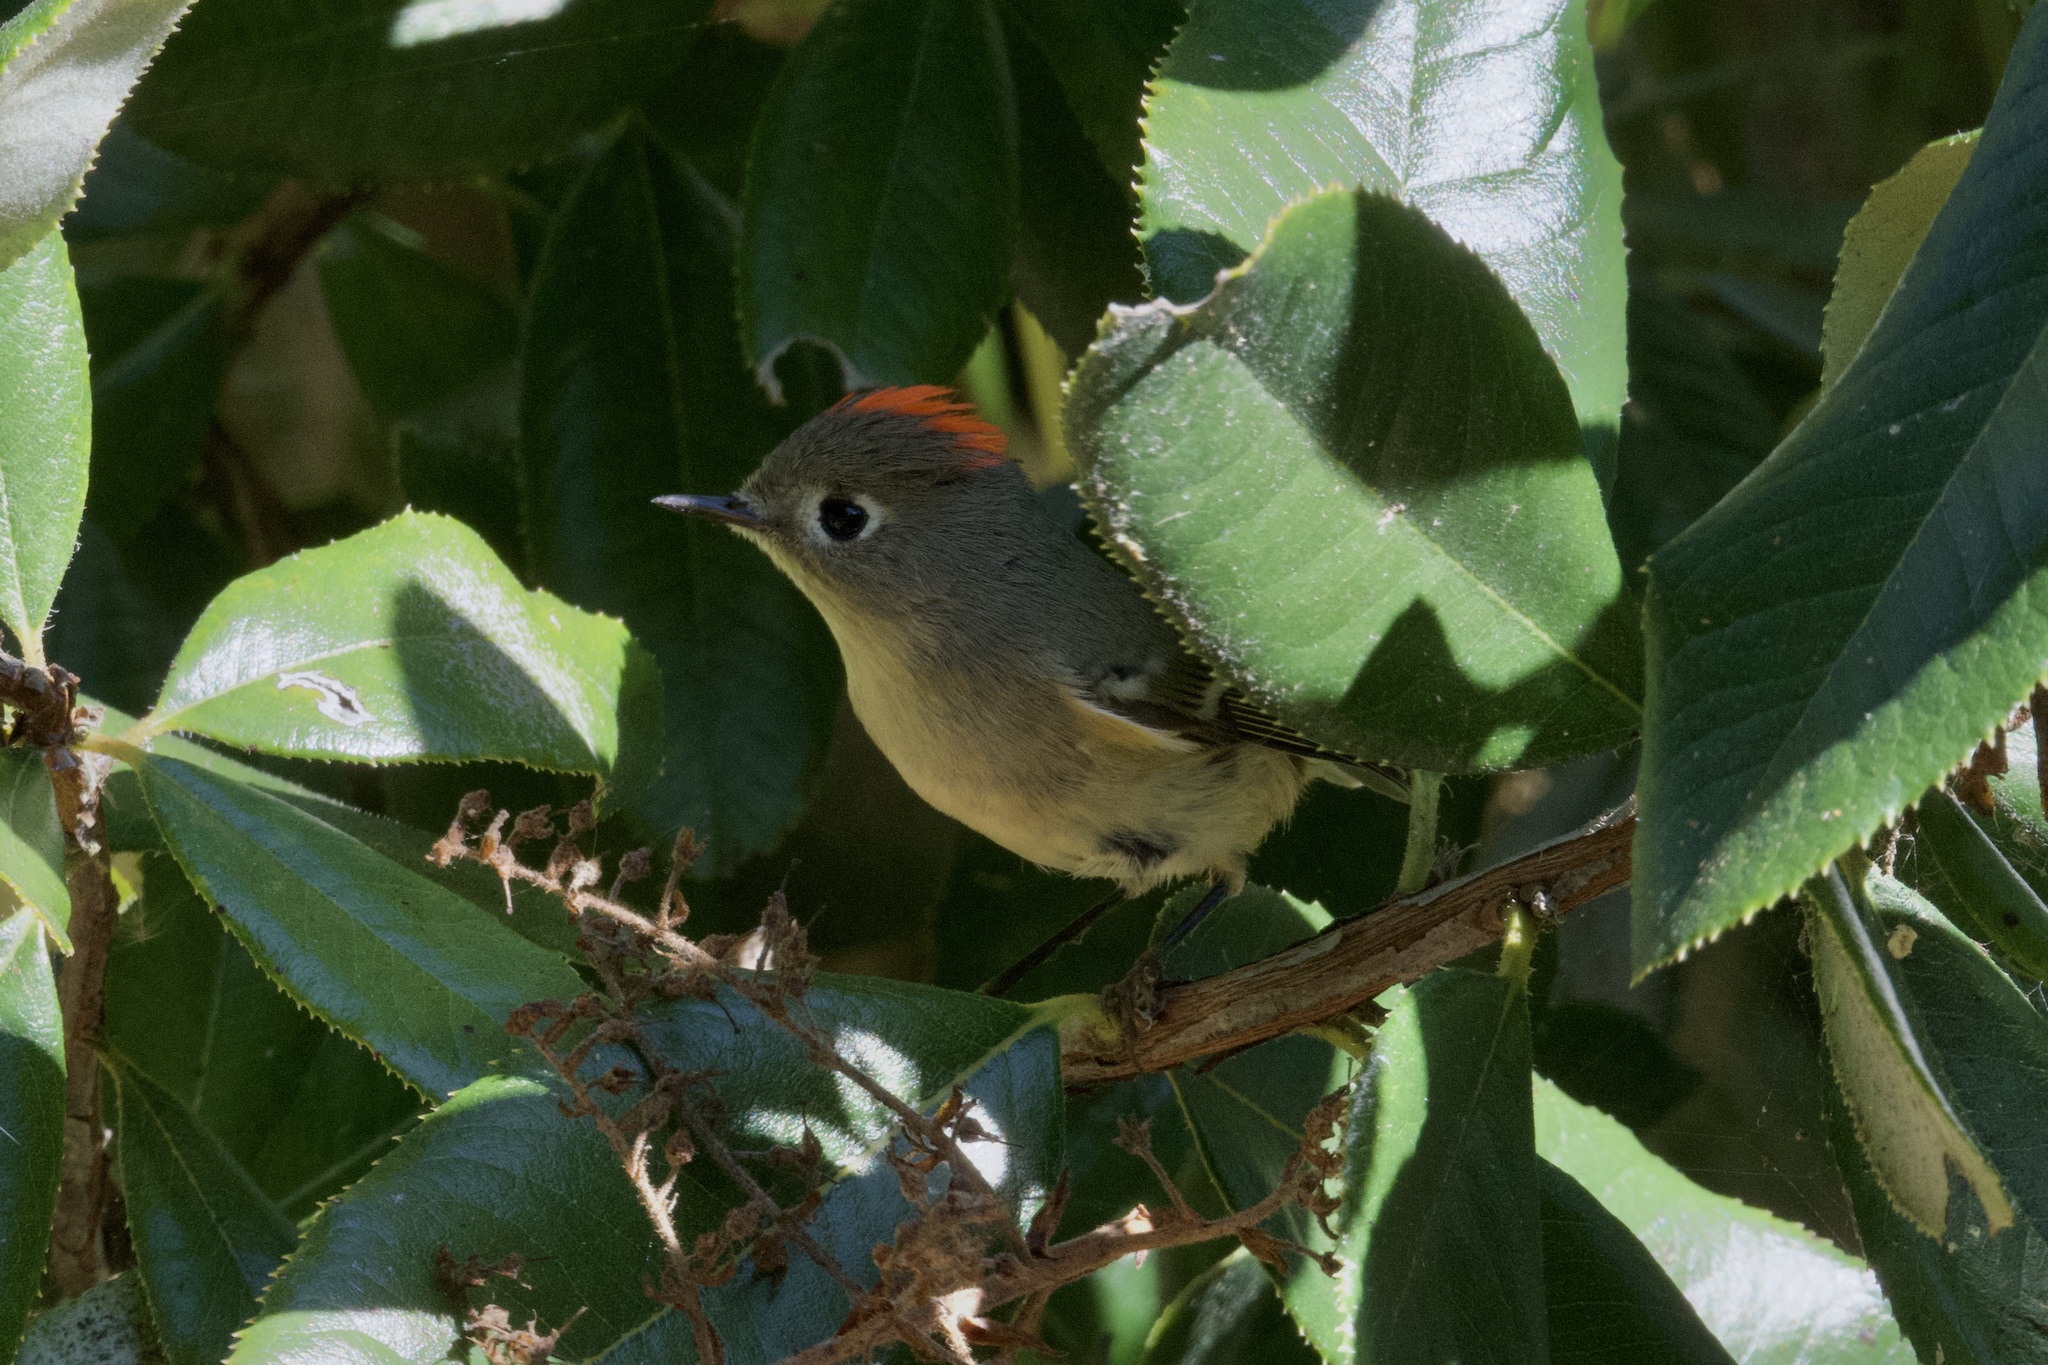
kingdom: Animalia
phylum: Chordata
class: Aves
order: Passeriformes
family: Regulidae
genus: Regulus
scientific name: Regulus calendula
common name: Ruby-crowned kinglet
